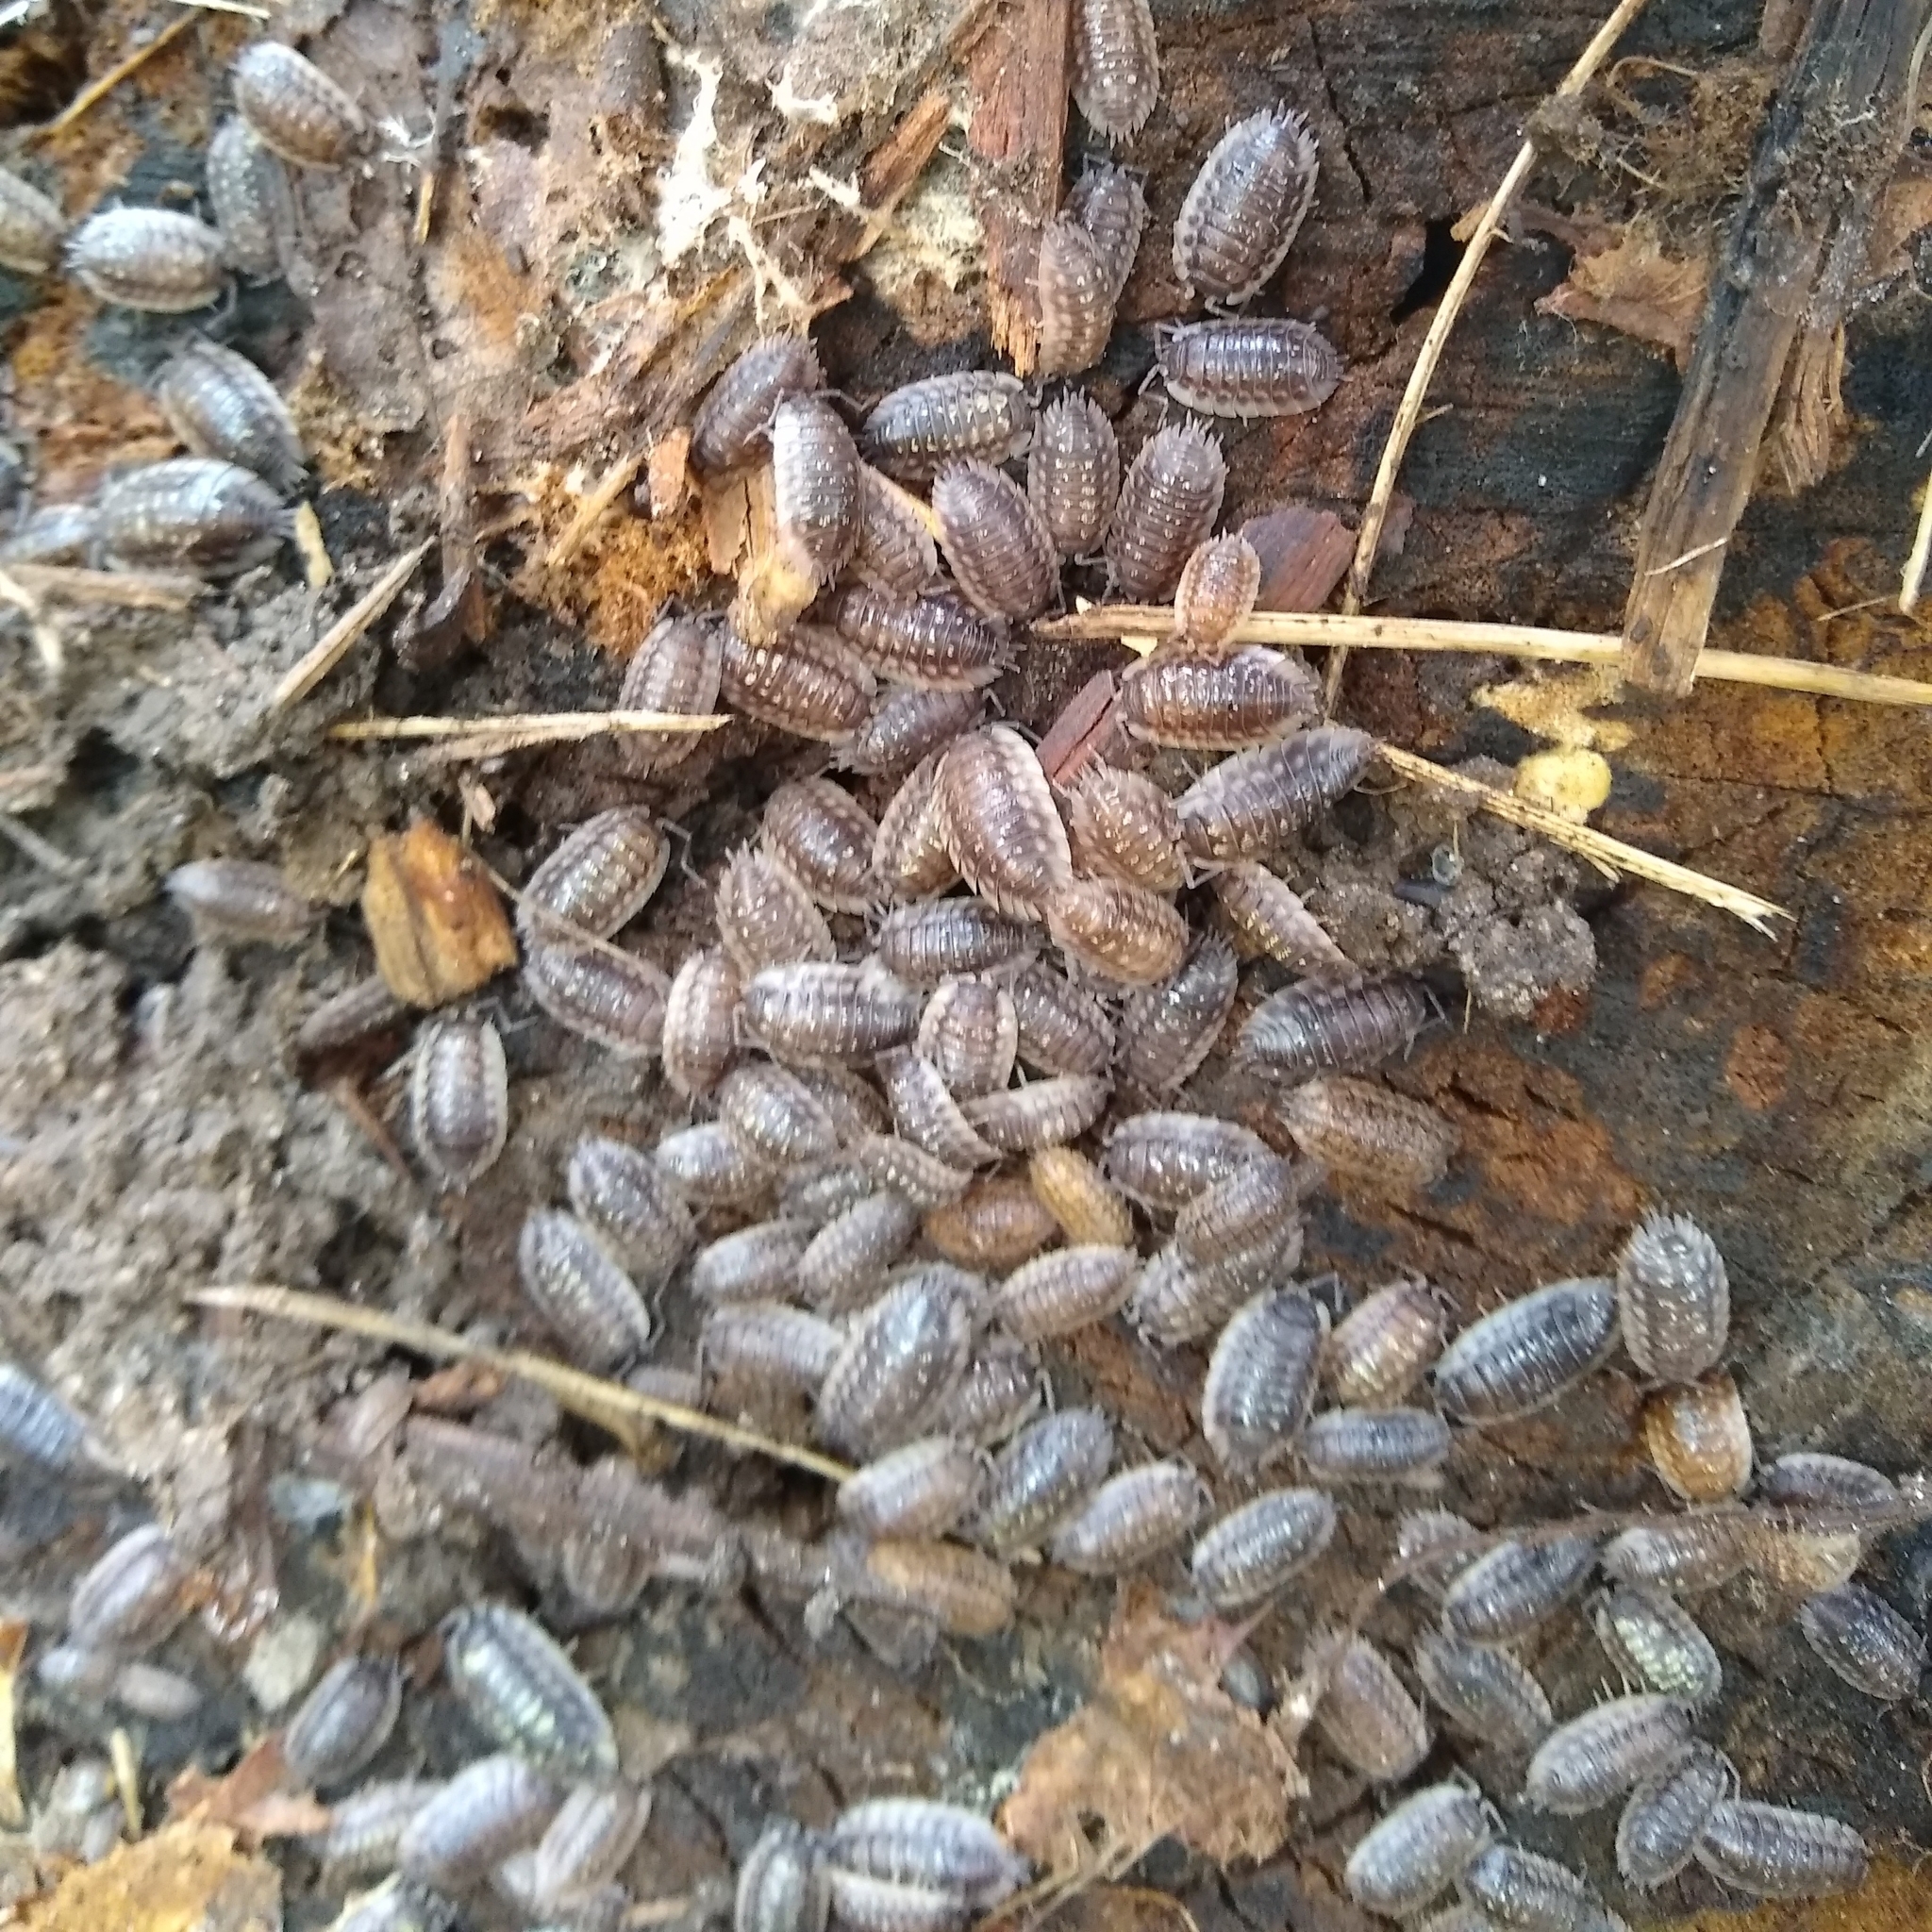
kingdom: Animalia
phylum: Arthropoda
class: Malacostraca
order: Isopoda
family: Oniscidae
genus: Oniscus
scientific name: Oniscus asellus
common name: Common shiny woodlouse
